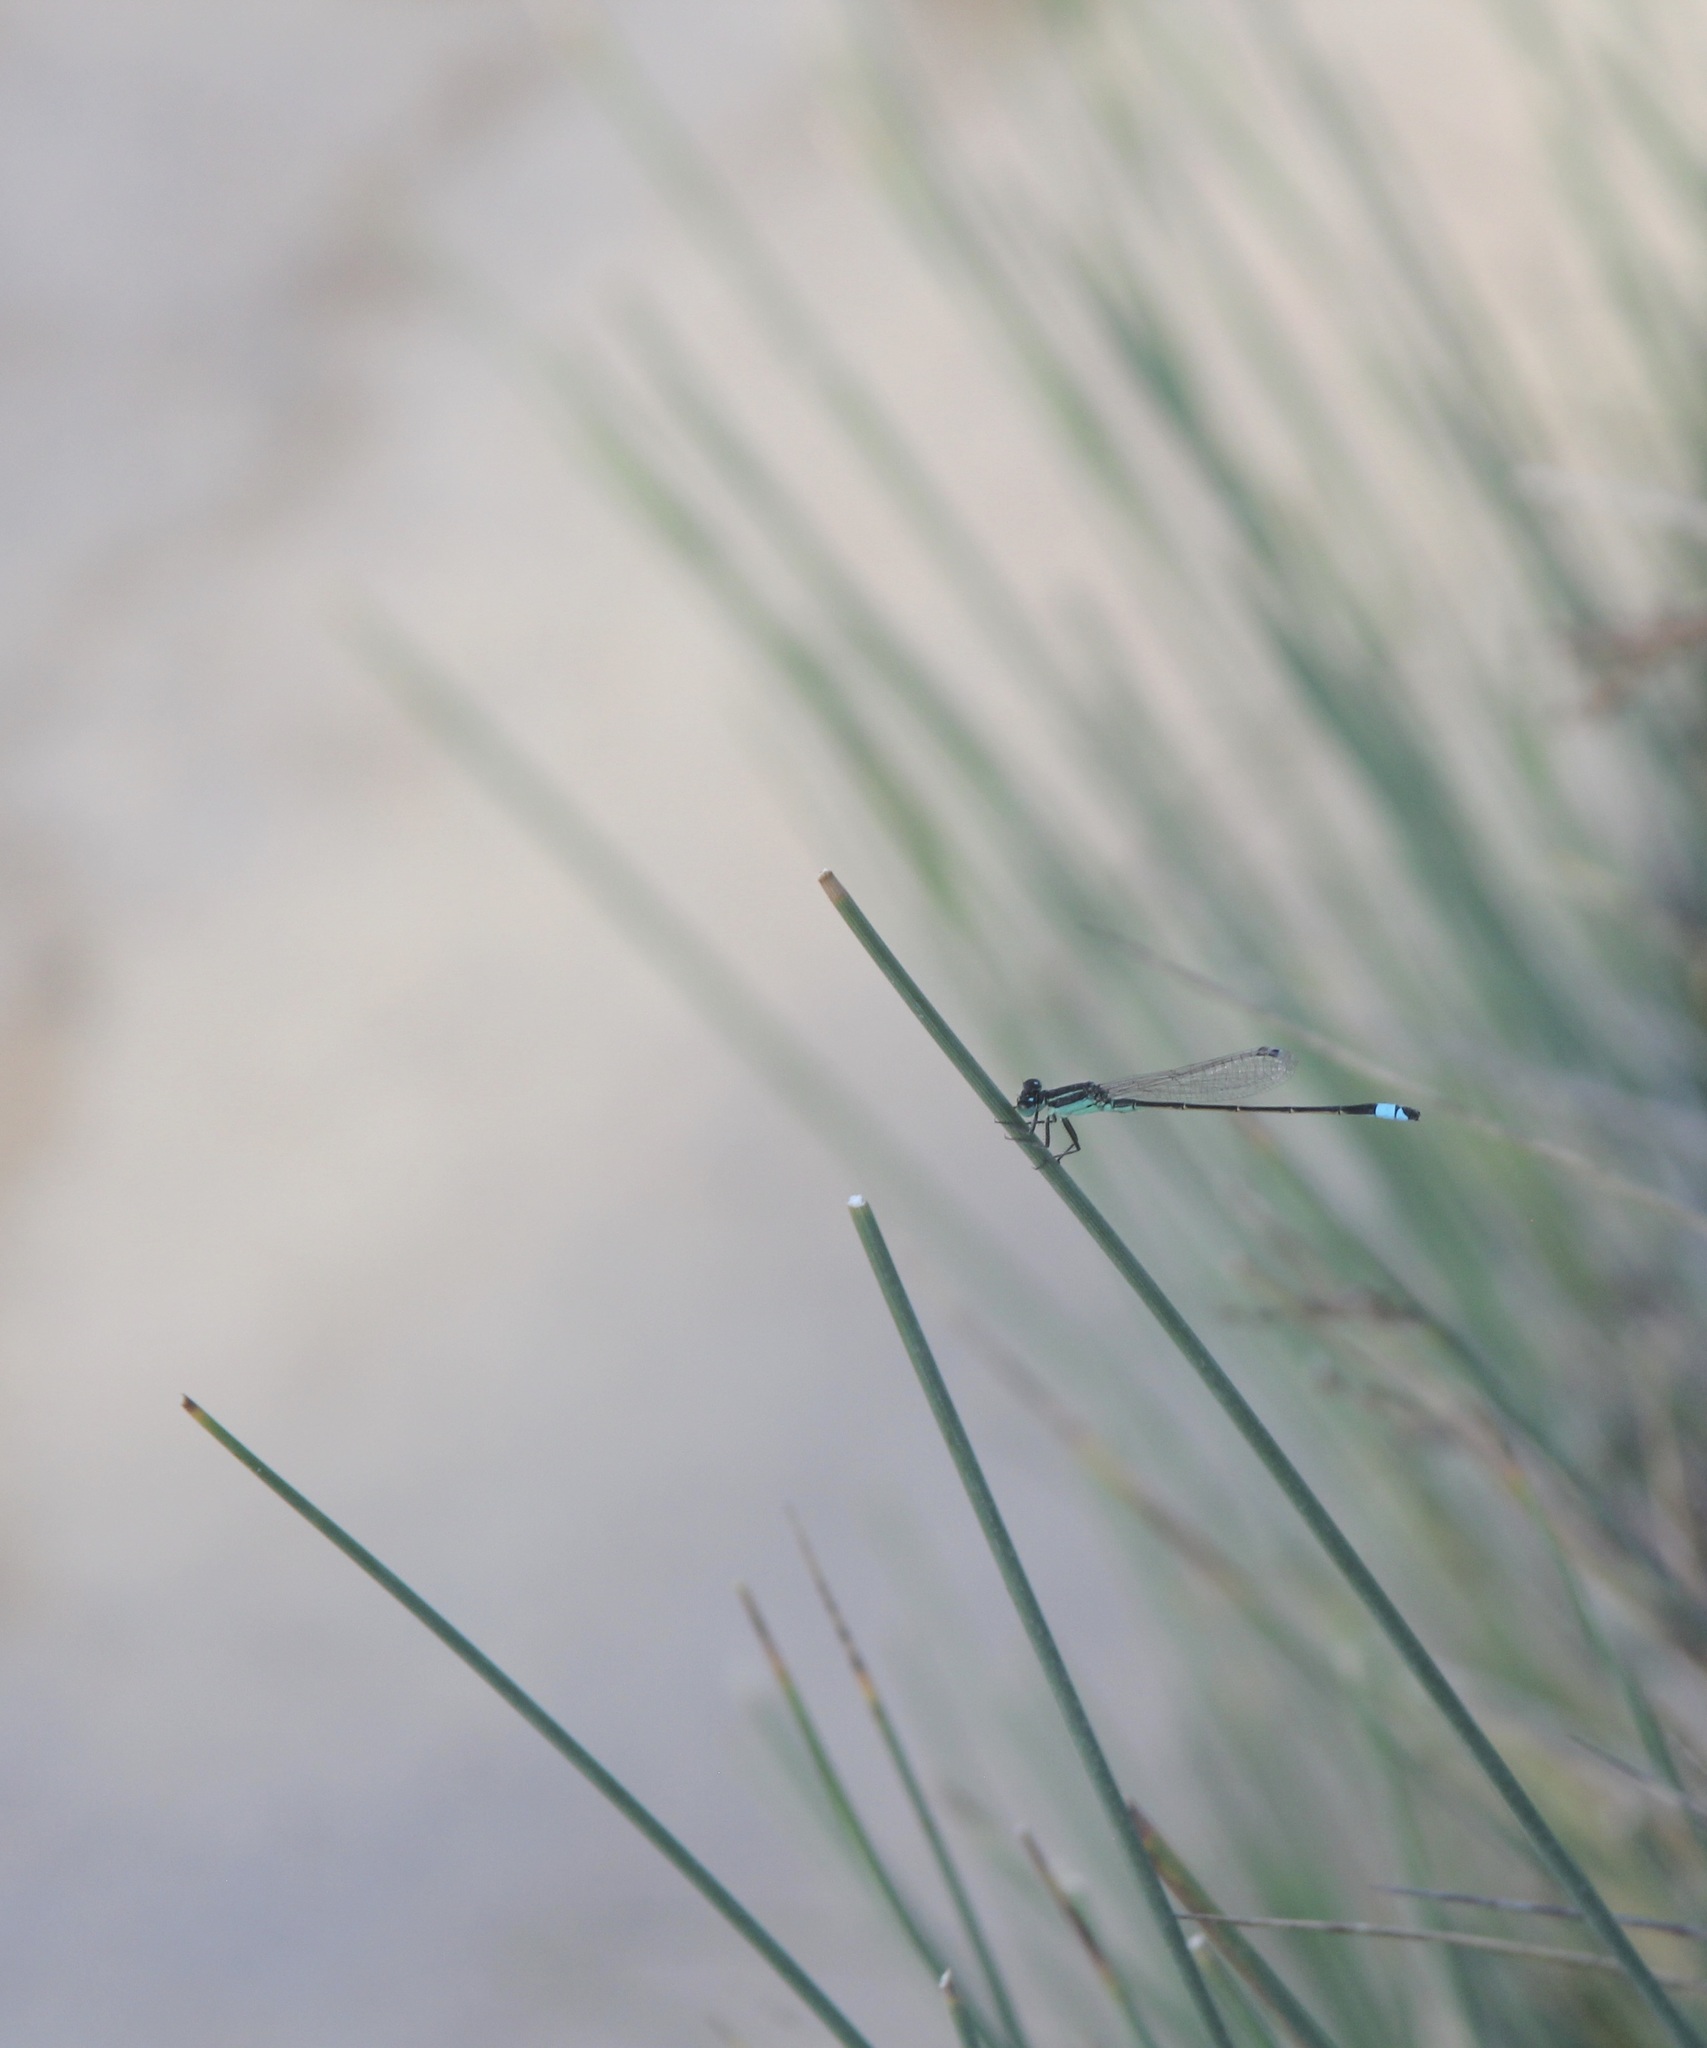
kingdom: Animalia
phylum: Arthropoda
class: Insecta
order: Odonata
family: Coenagrionidae
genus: Ischnura
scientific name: Ischnura ramburii
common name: Rambur's forktail
